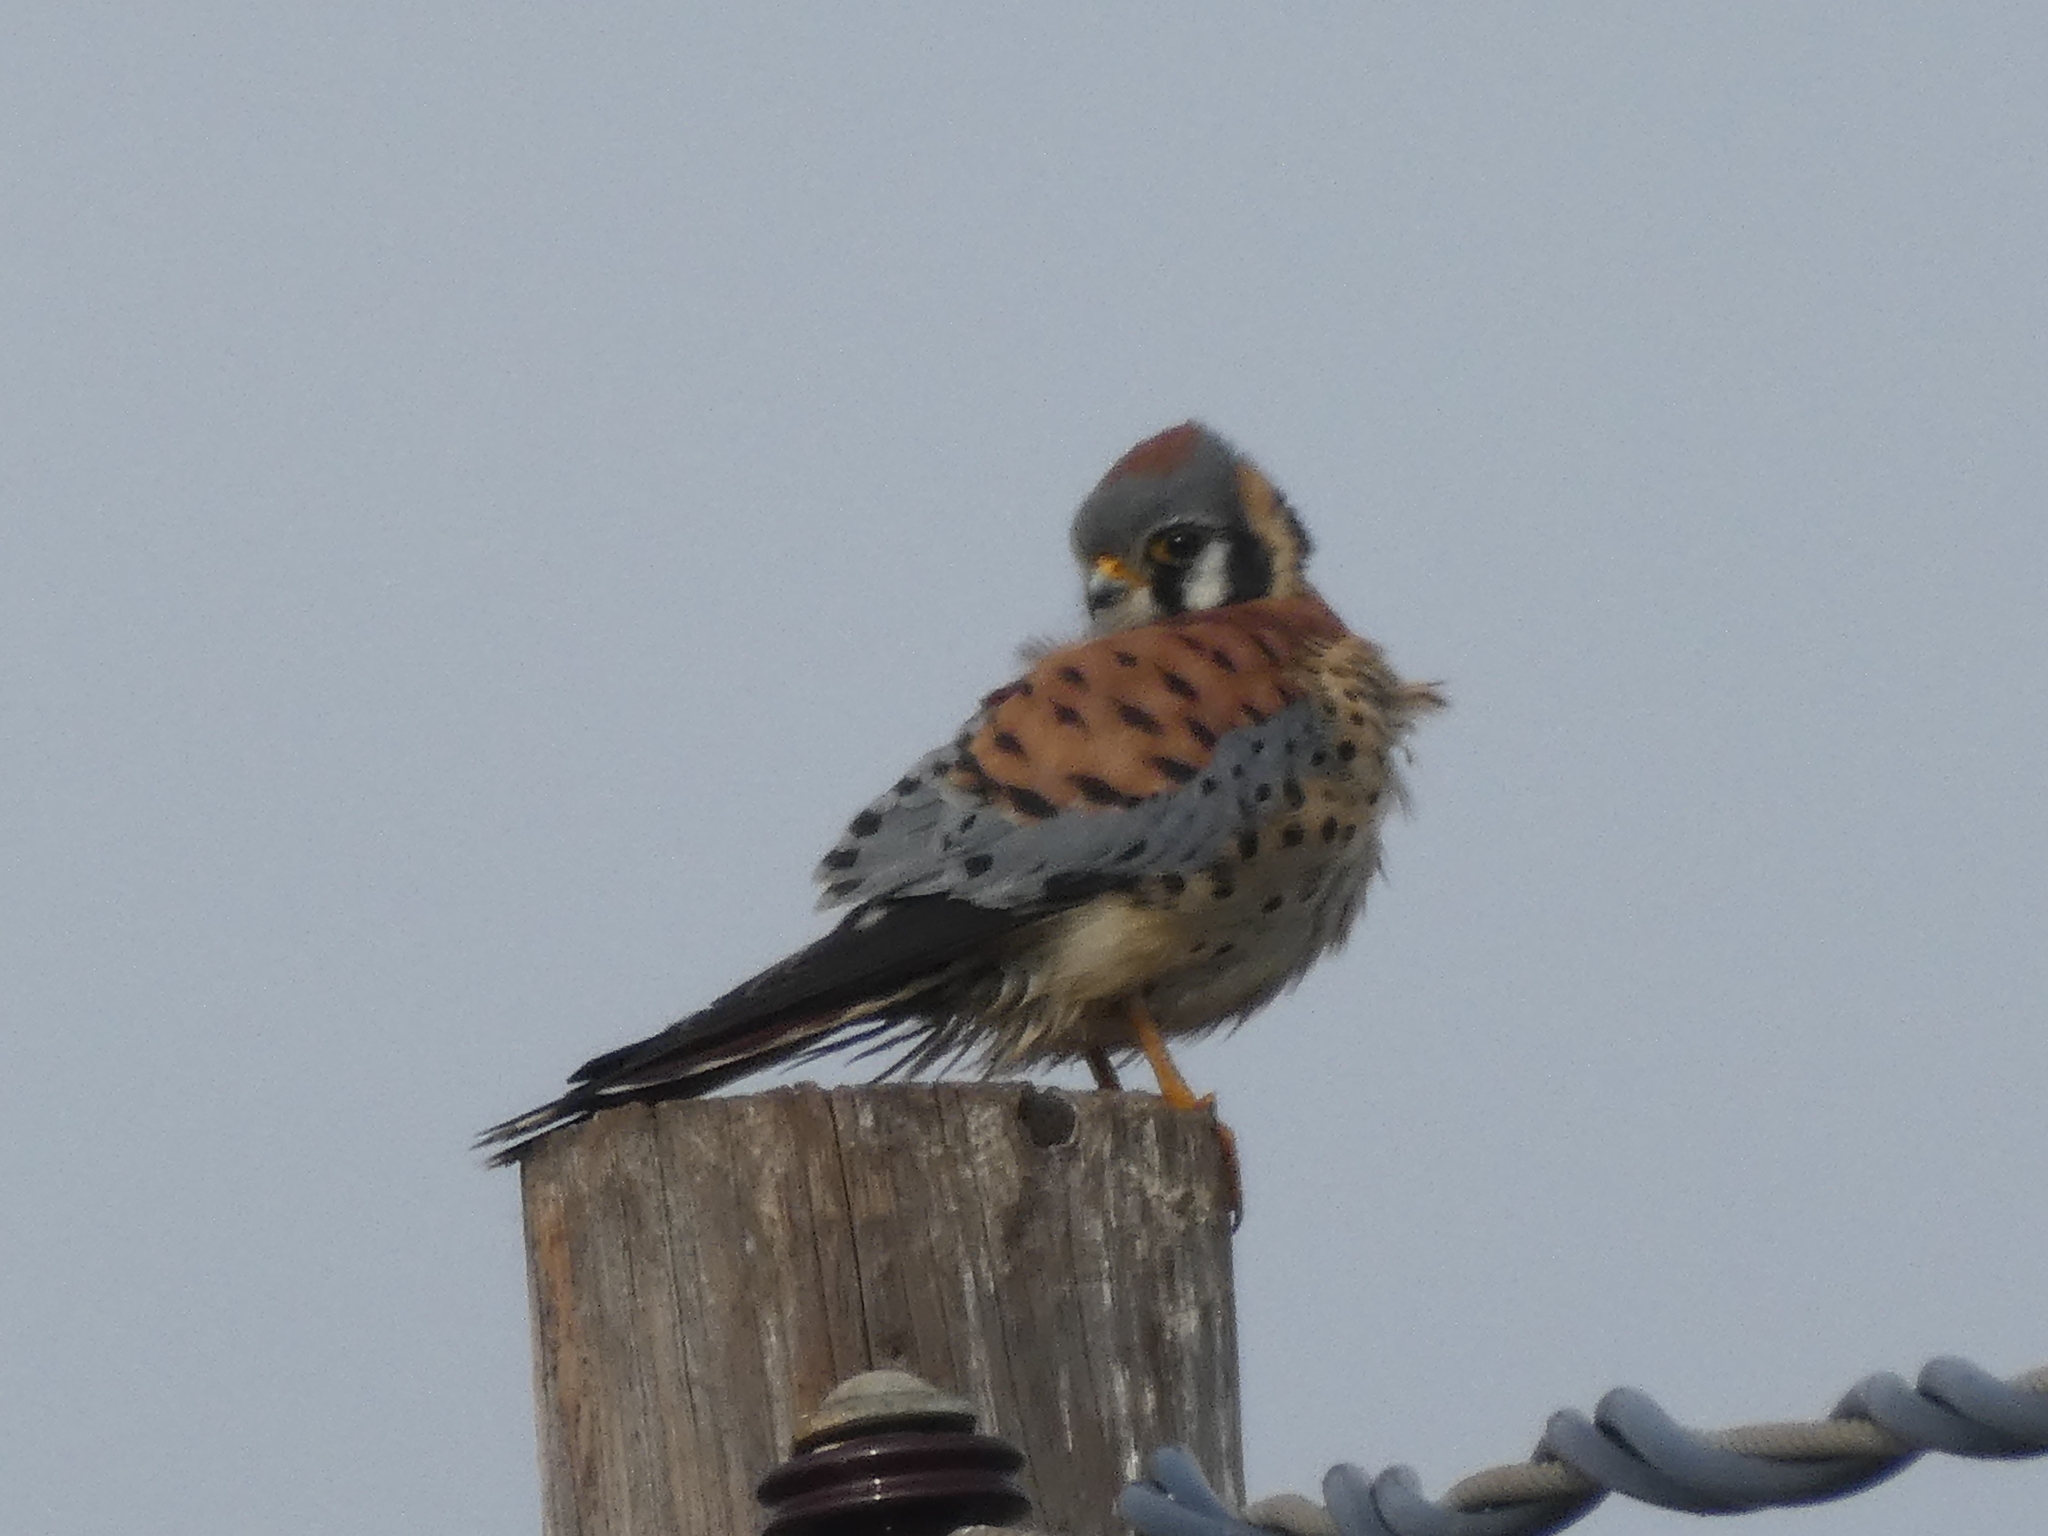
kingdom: Animalia
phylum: Chordata
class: Aves
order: Falconiformes
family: Falconidae
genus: Falco
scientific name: Falco sparverius
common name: American kestrel
